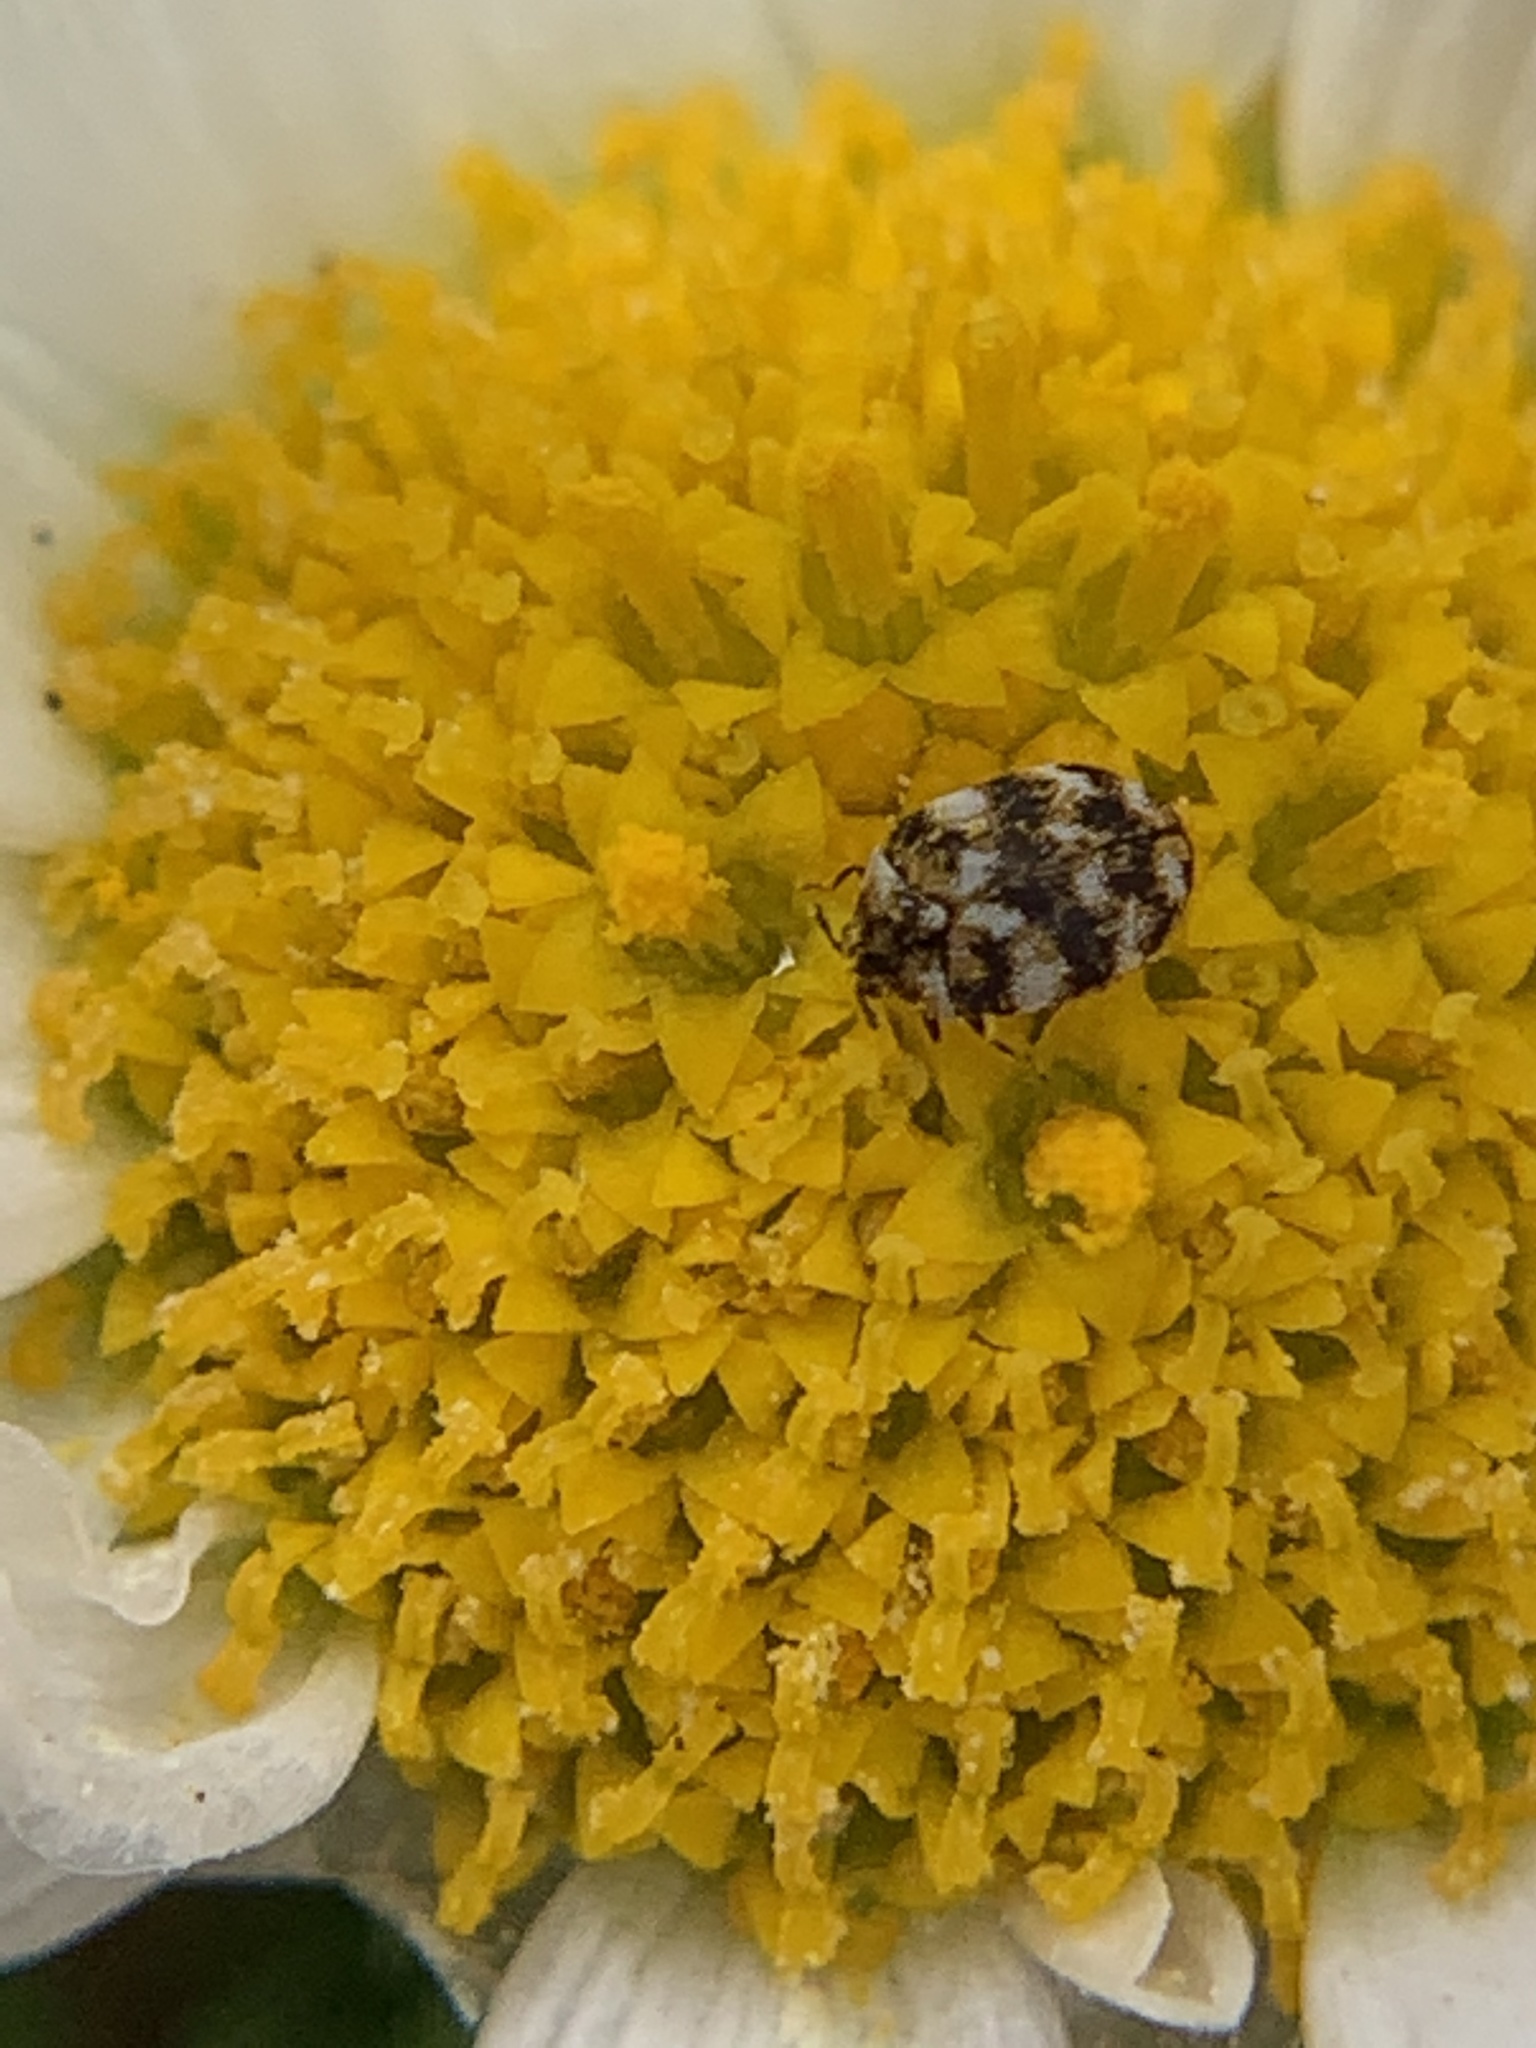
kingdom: Animalia
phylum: Arthropoda
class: Insecta
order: Coleoptera
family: Dermestidae
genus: Anthrenus
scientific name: Anthrenus verbasci
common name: Varied carpet beetle
